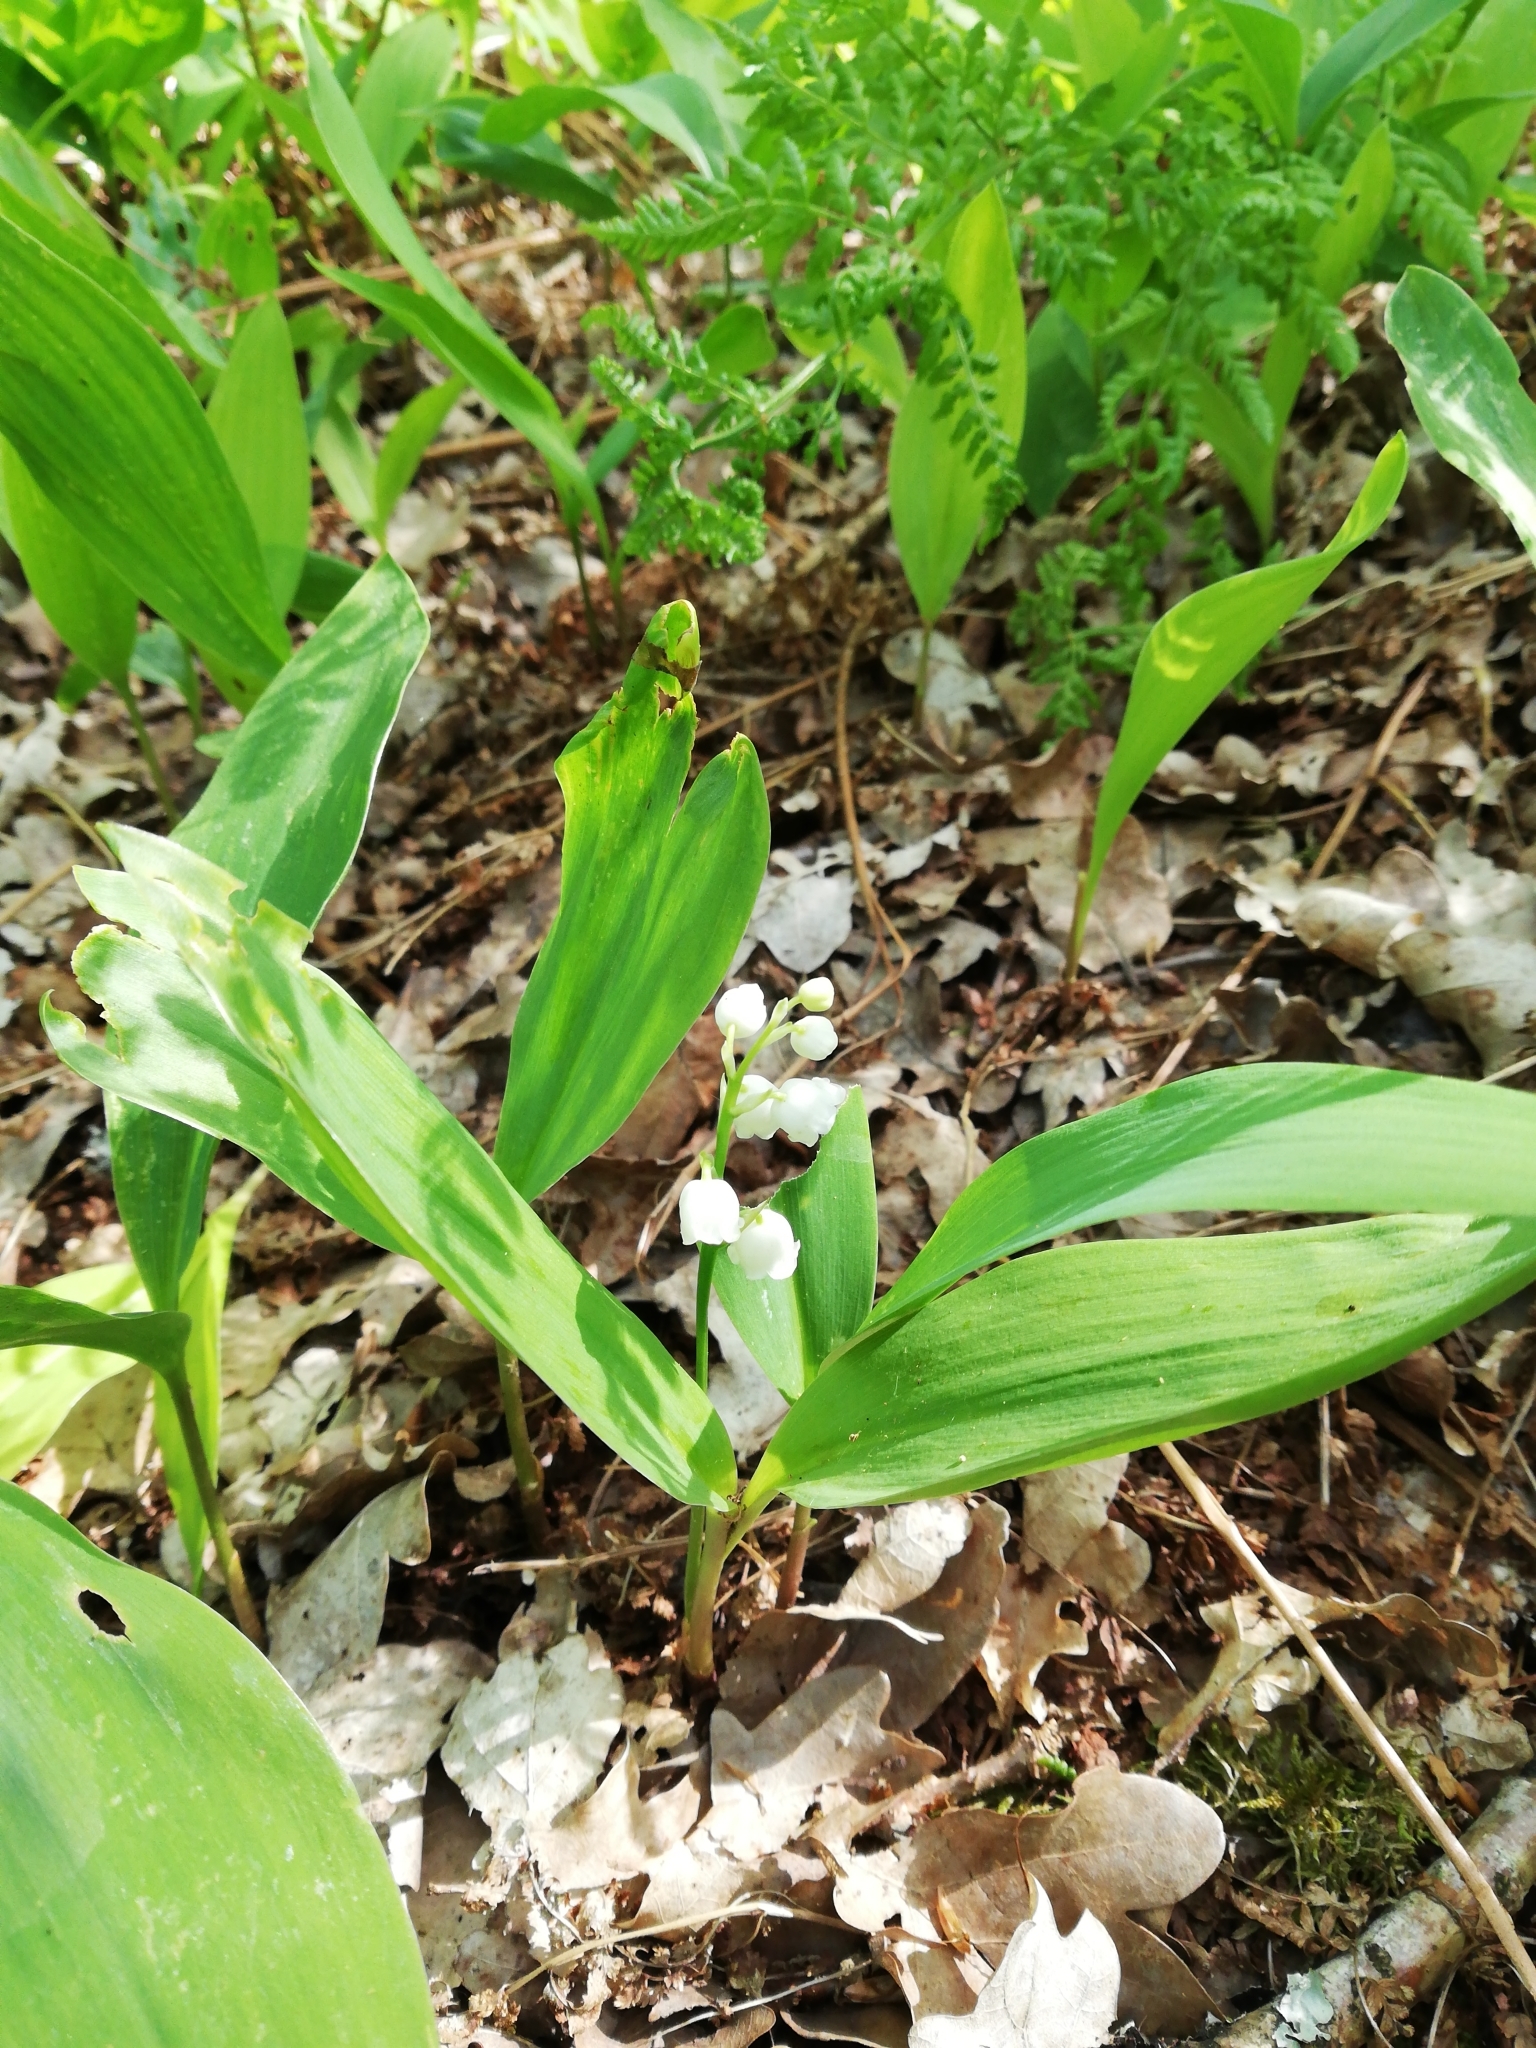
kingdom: Plantae
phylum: Tracheophyta
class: Liliopsida
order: Asparagales
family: Asparagaceae
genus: Convallaria
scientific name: Convallaria majalis
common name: Lily-of-the-valley
